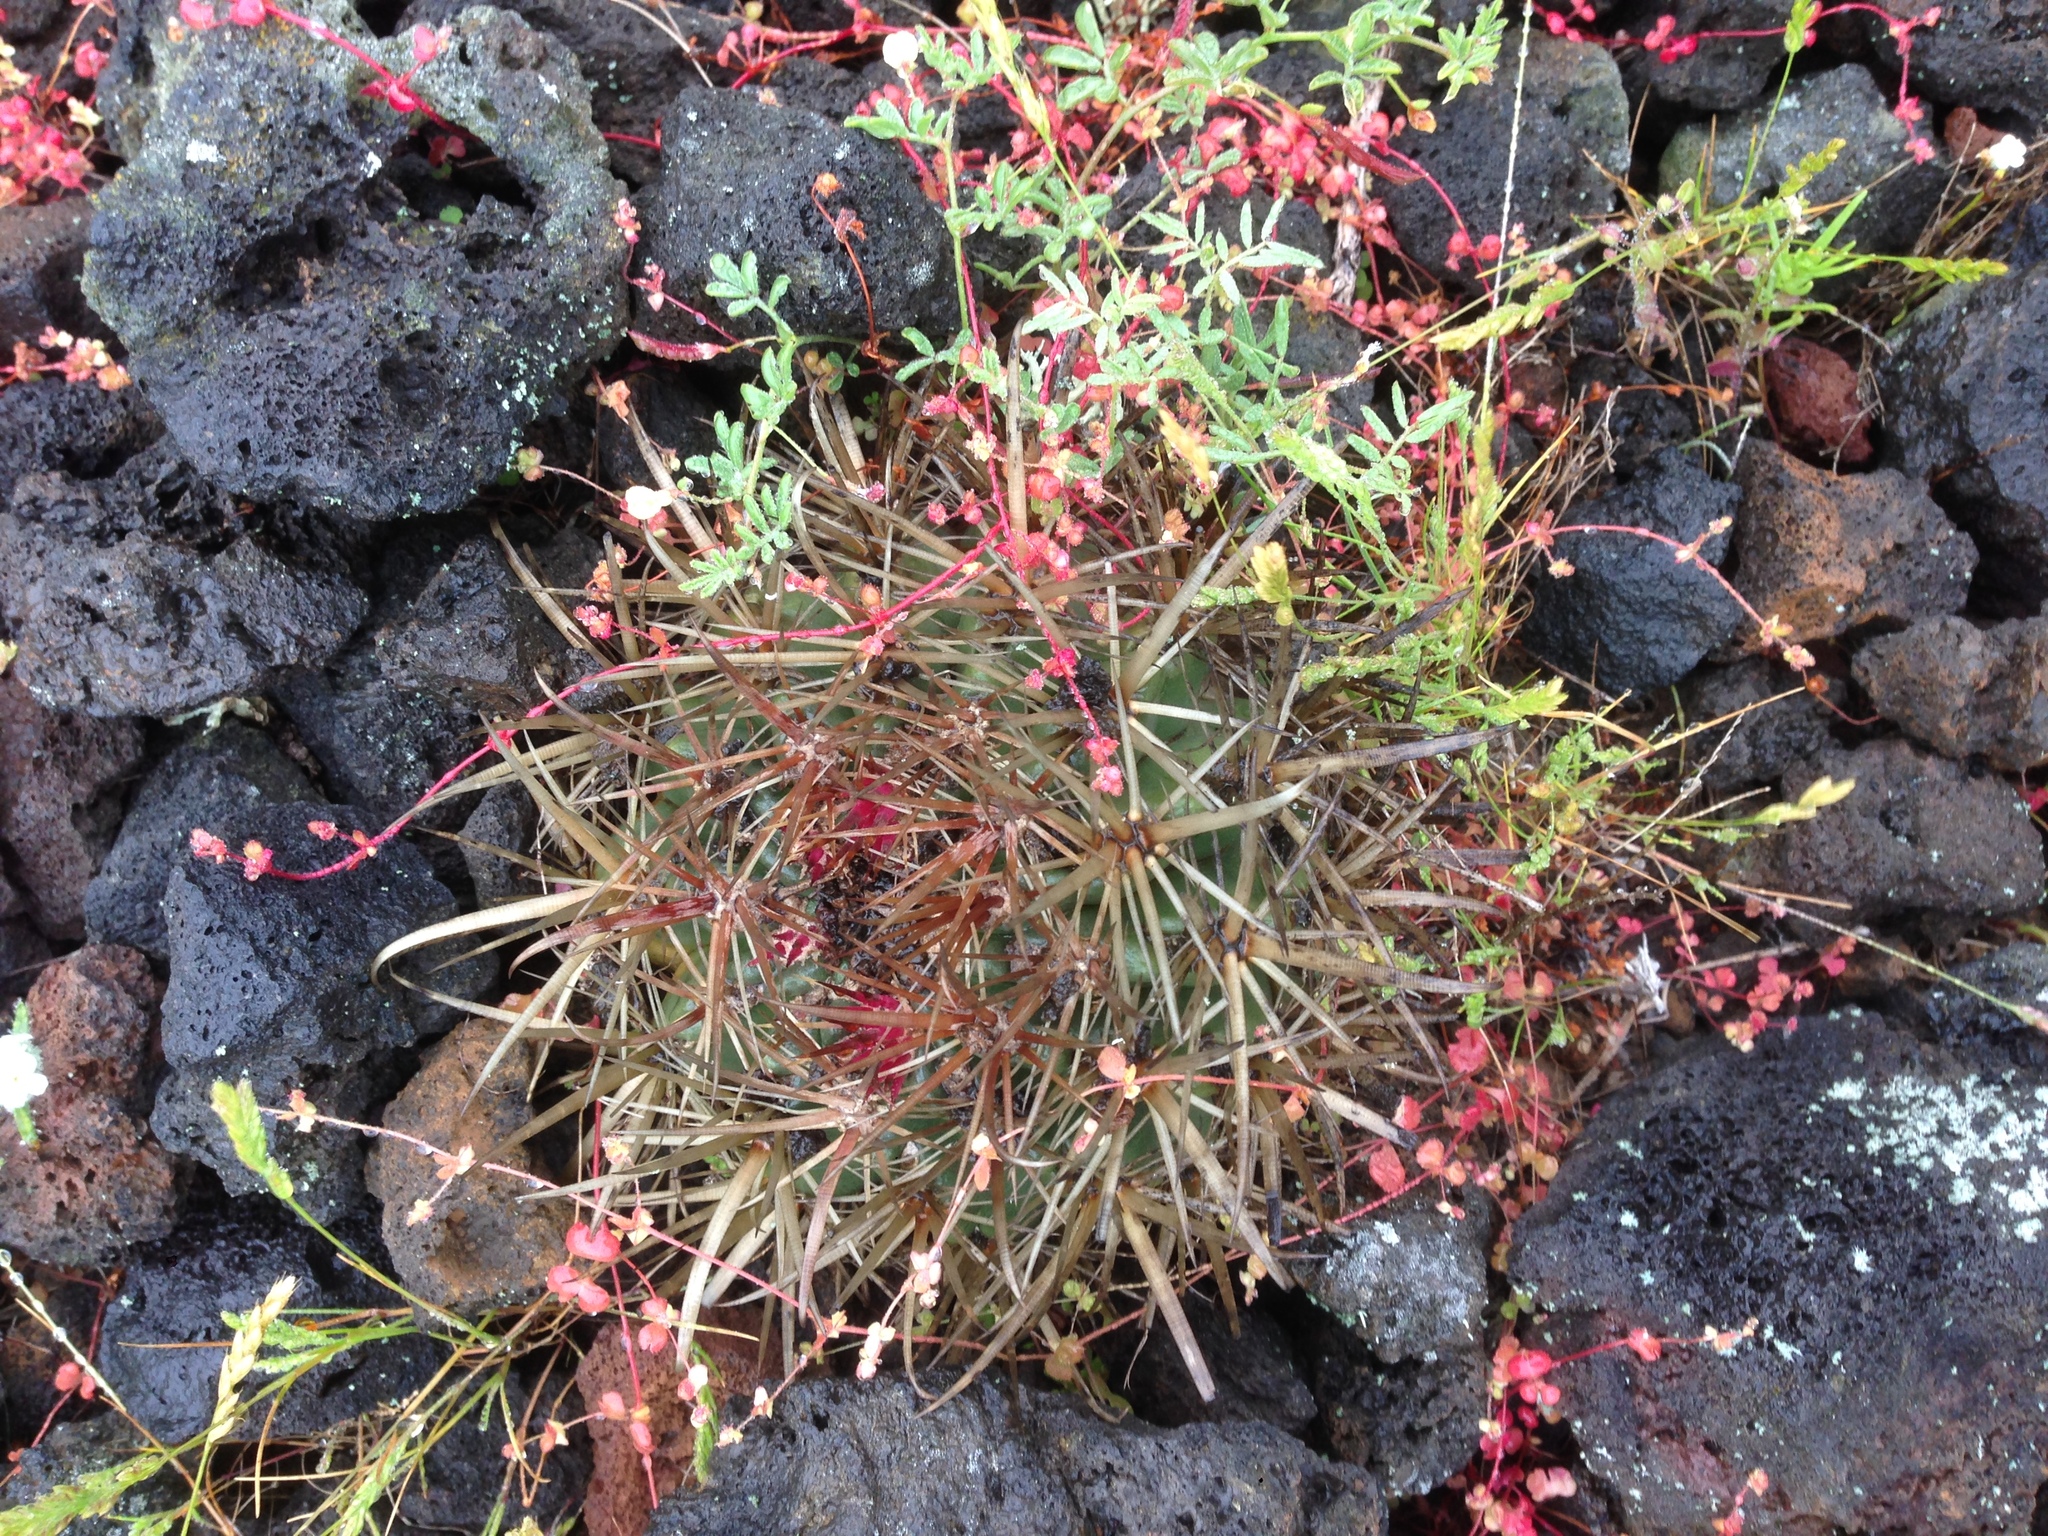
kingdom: Plantae
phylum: Tracheophyta
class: Magnoliopsida
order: Caryophyllales
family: Cactaceae
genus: Ferocactus
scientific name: Ferocactus viridescens
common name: San diego barrel cactus
